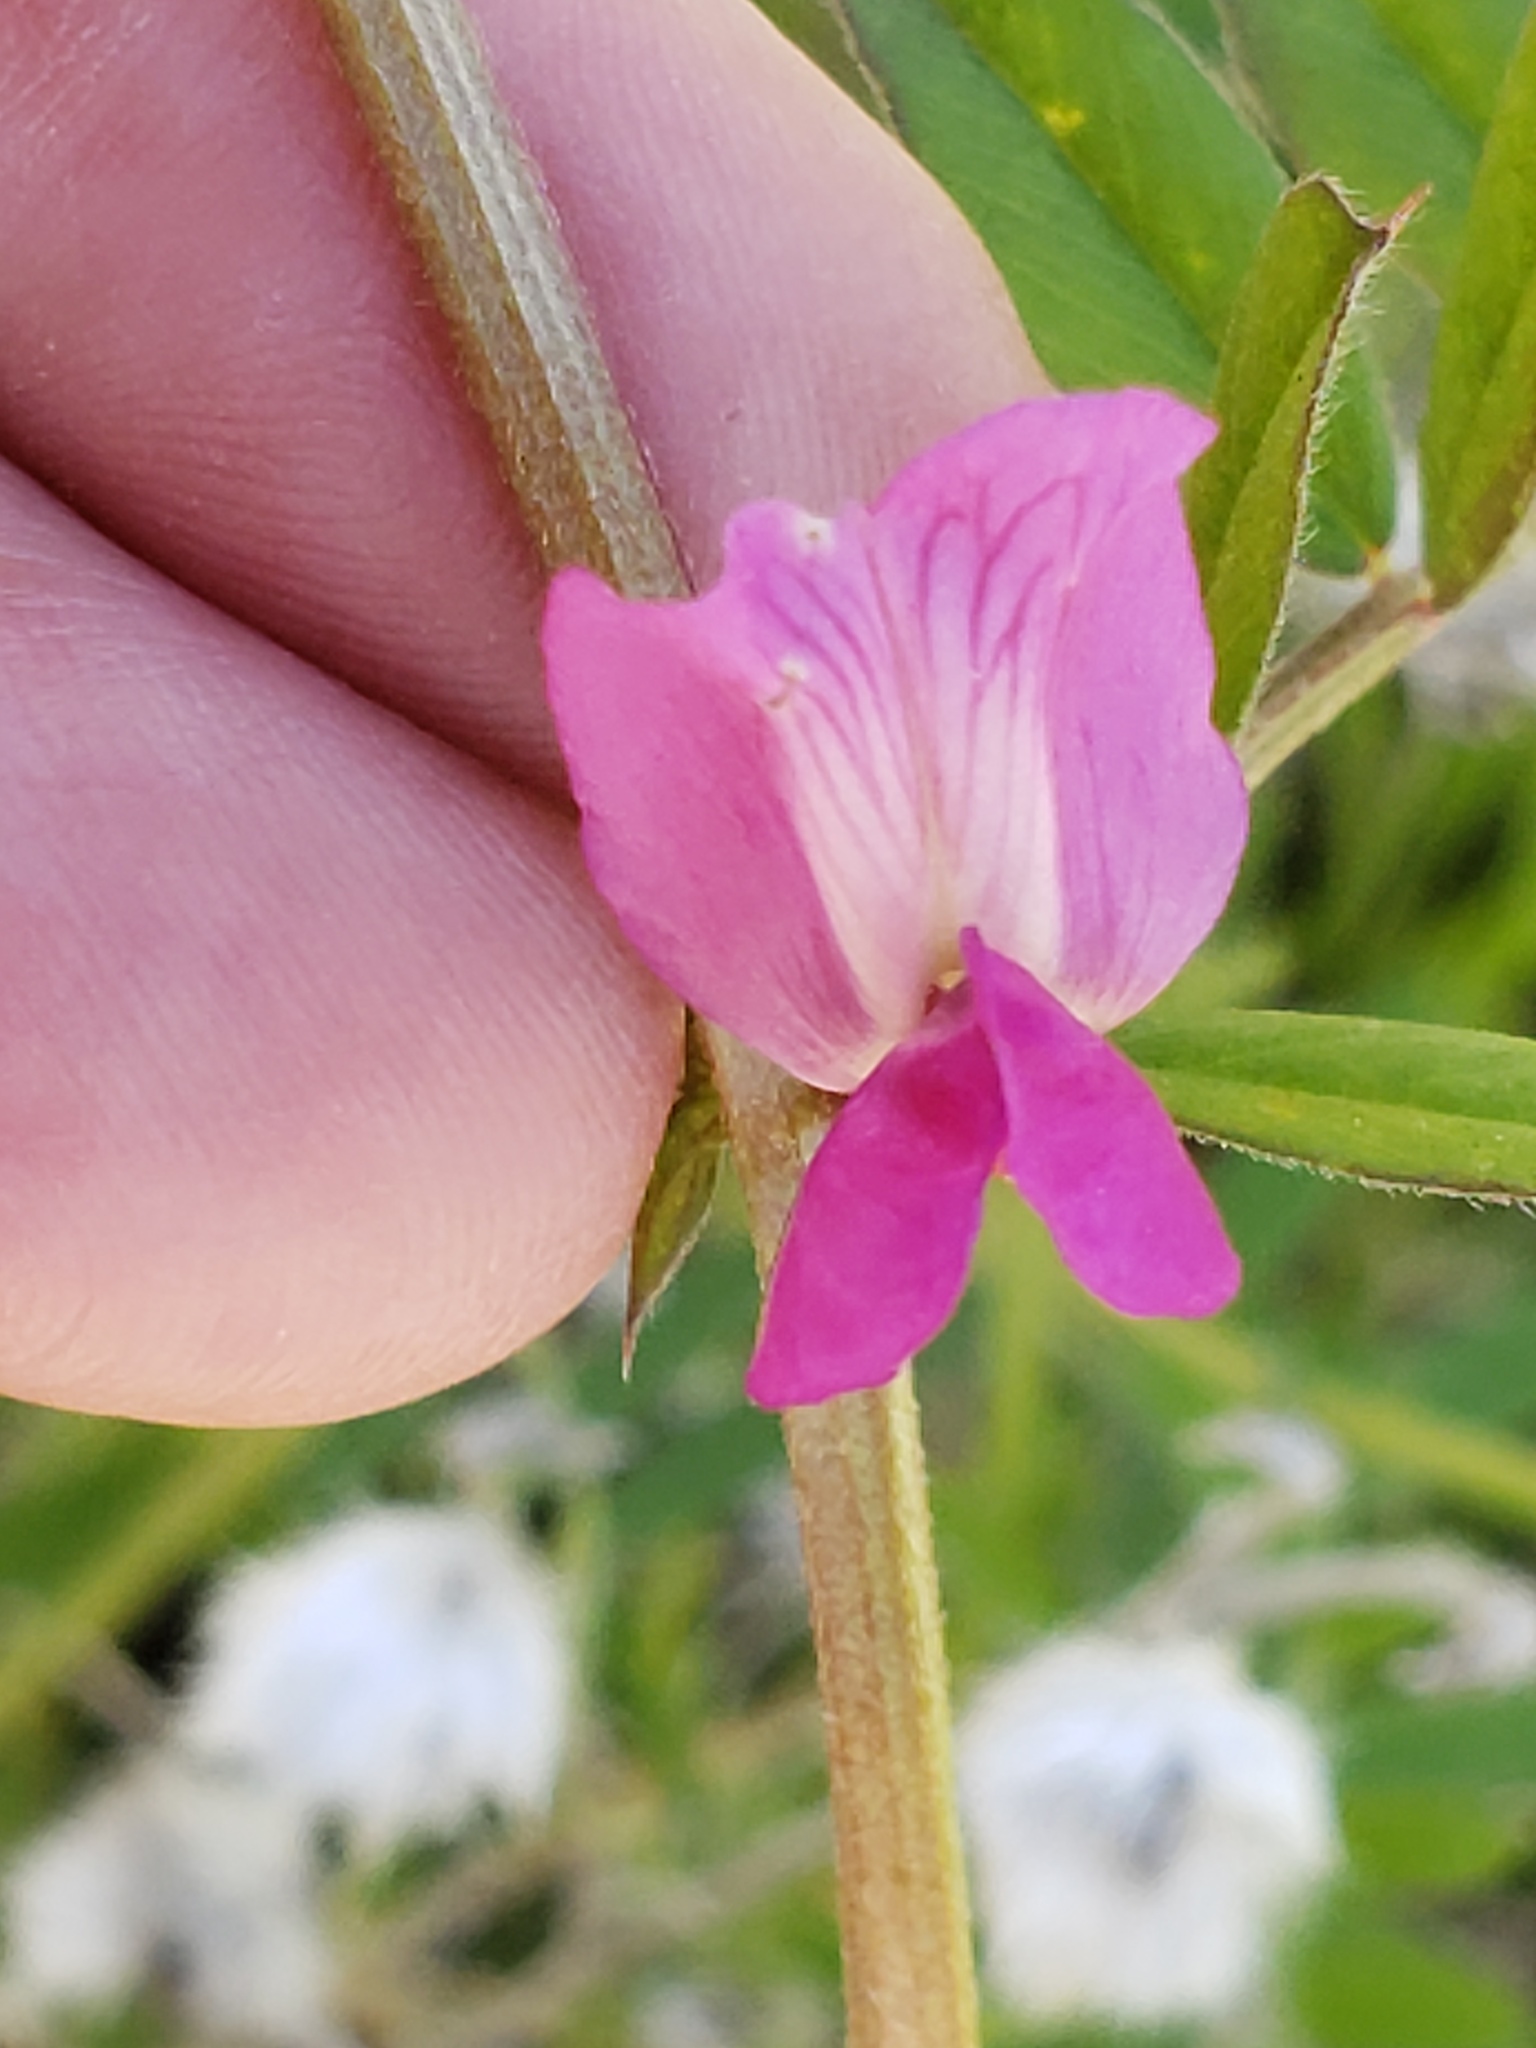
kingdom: Plantae
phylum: Tracheophyta
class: Magnoliopsida
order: Fabales
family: Fabaceae
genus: Vicia
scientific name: Vicia sativa
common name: Garden vetch
